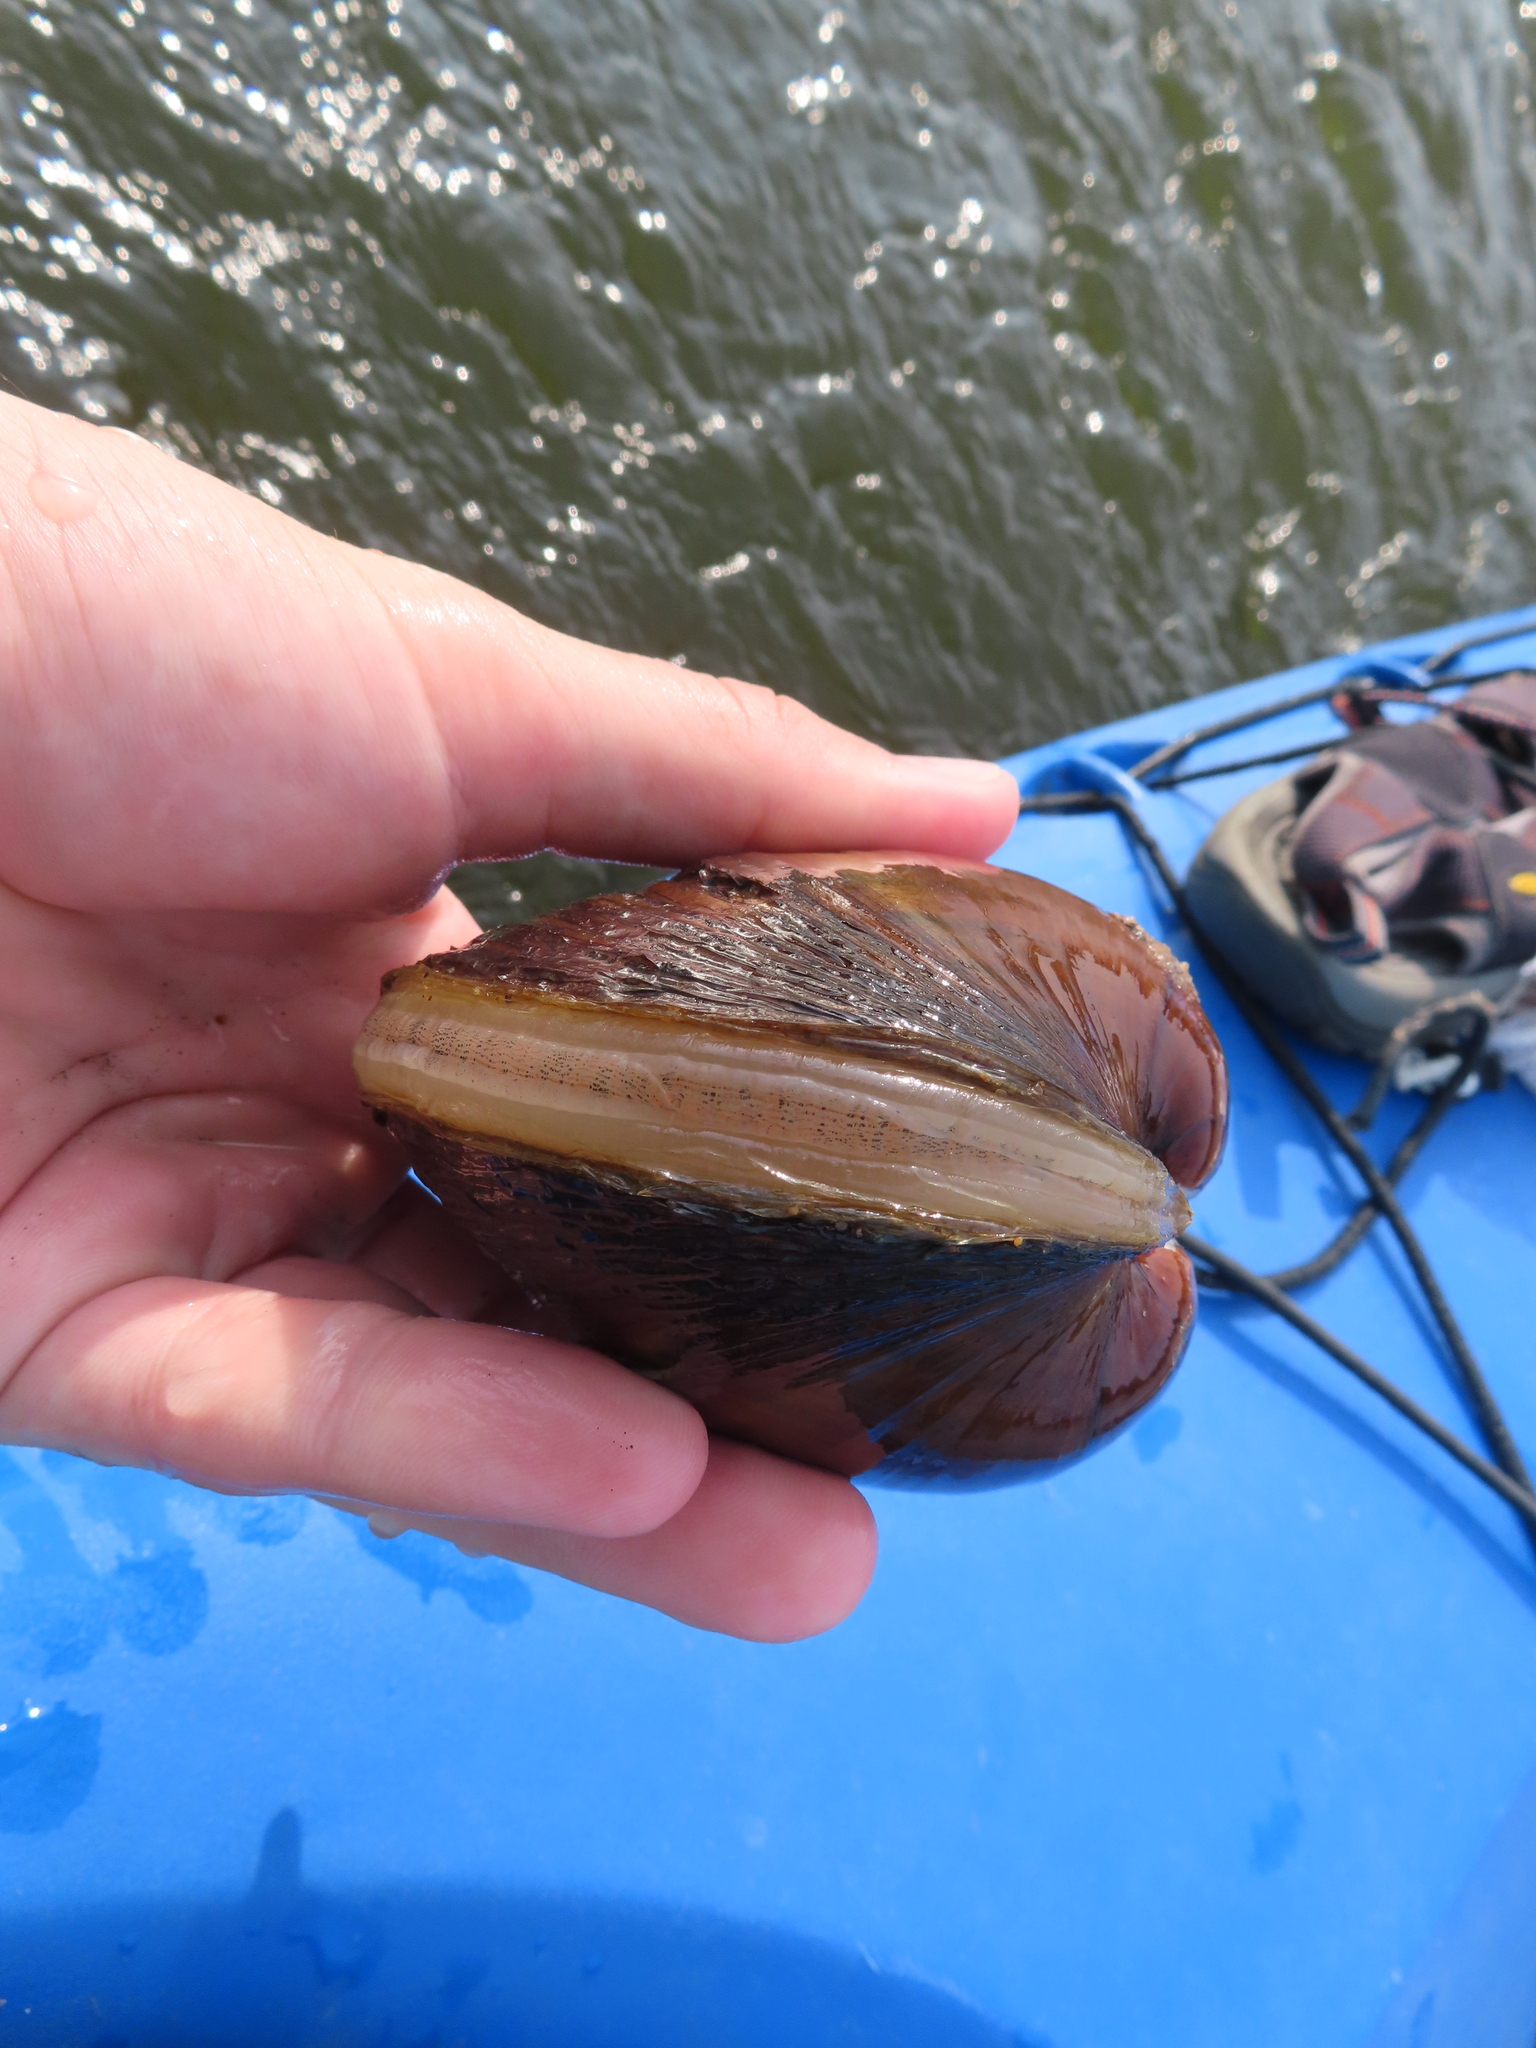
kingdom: Animalia
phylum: Mollusca
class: Bivalvia
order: Unionida
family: Unionidae
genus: Lampsilis
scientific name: Lampsilis cardium
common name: Plain pocketbook
